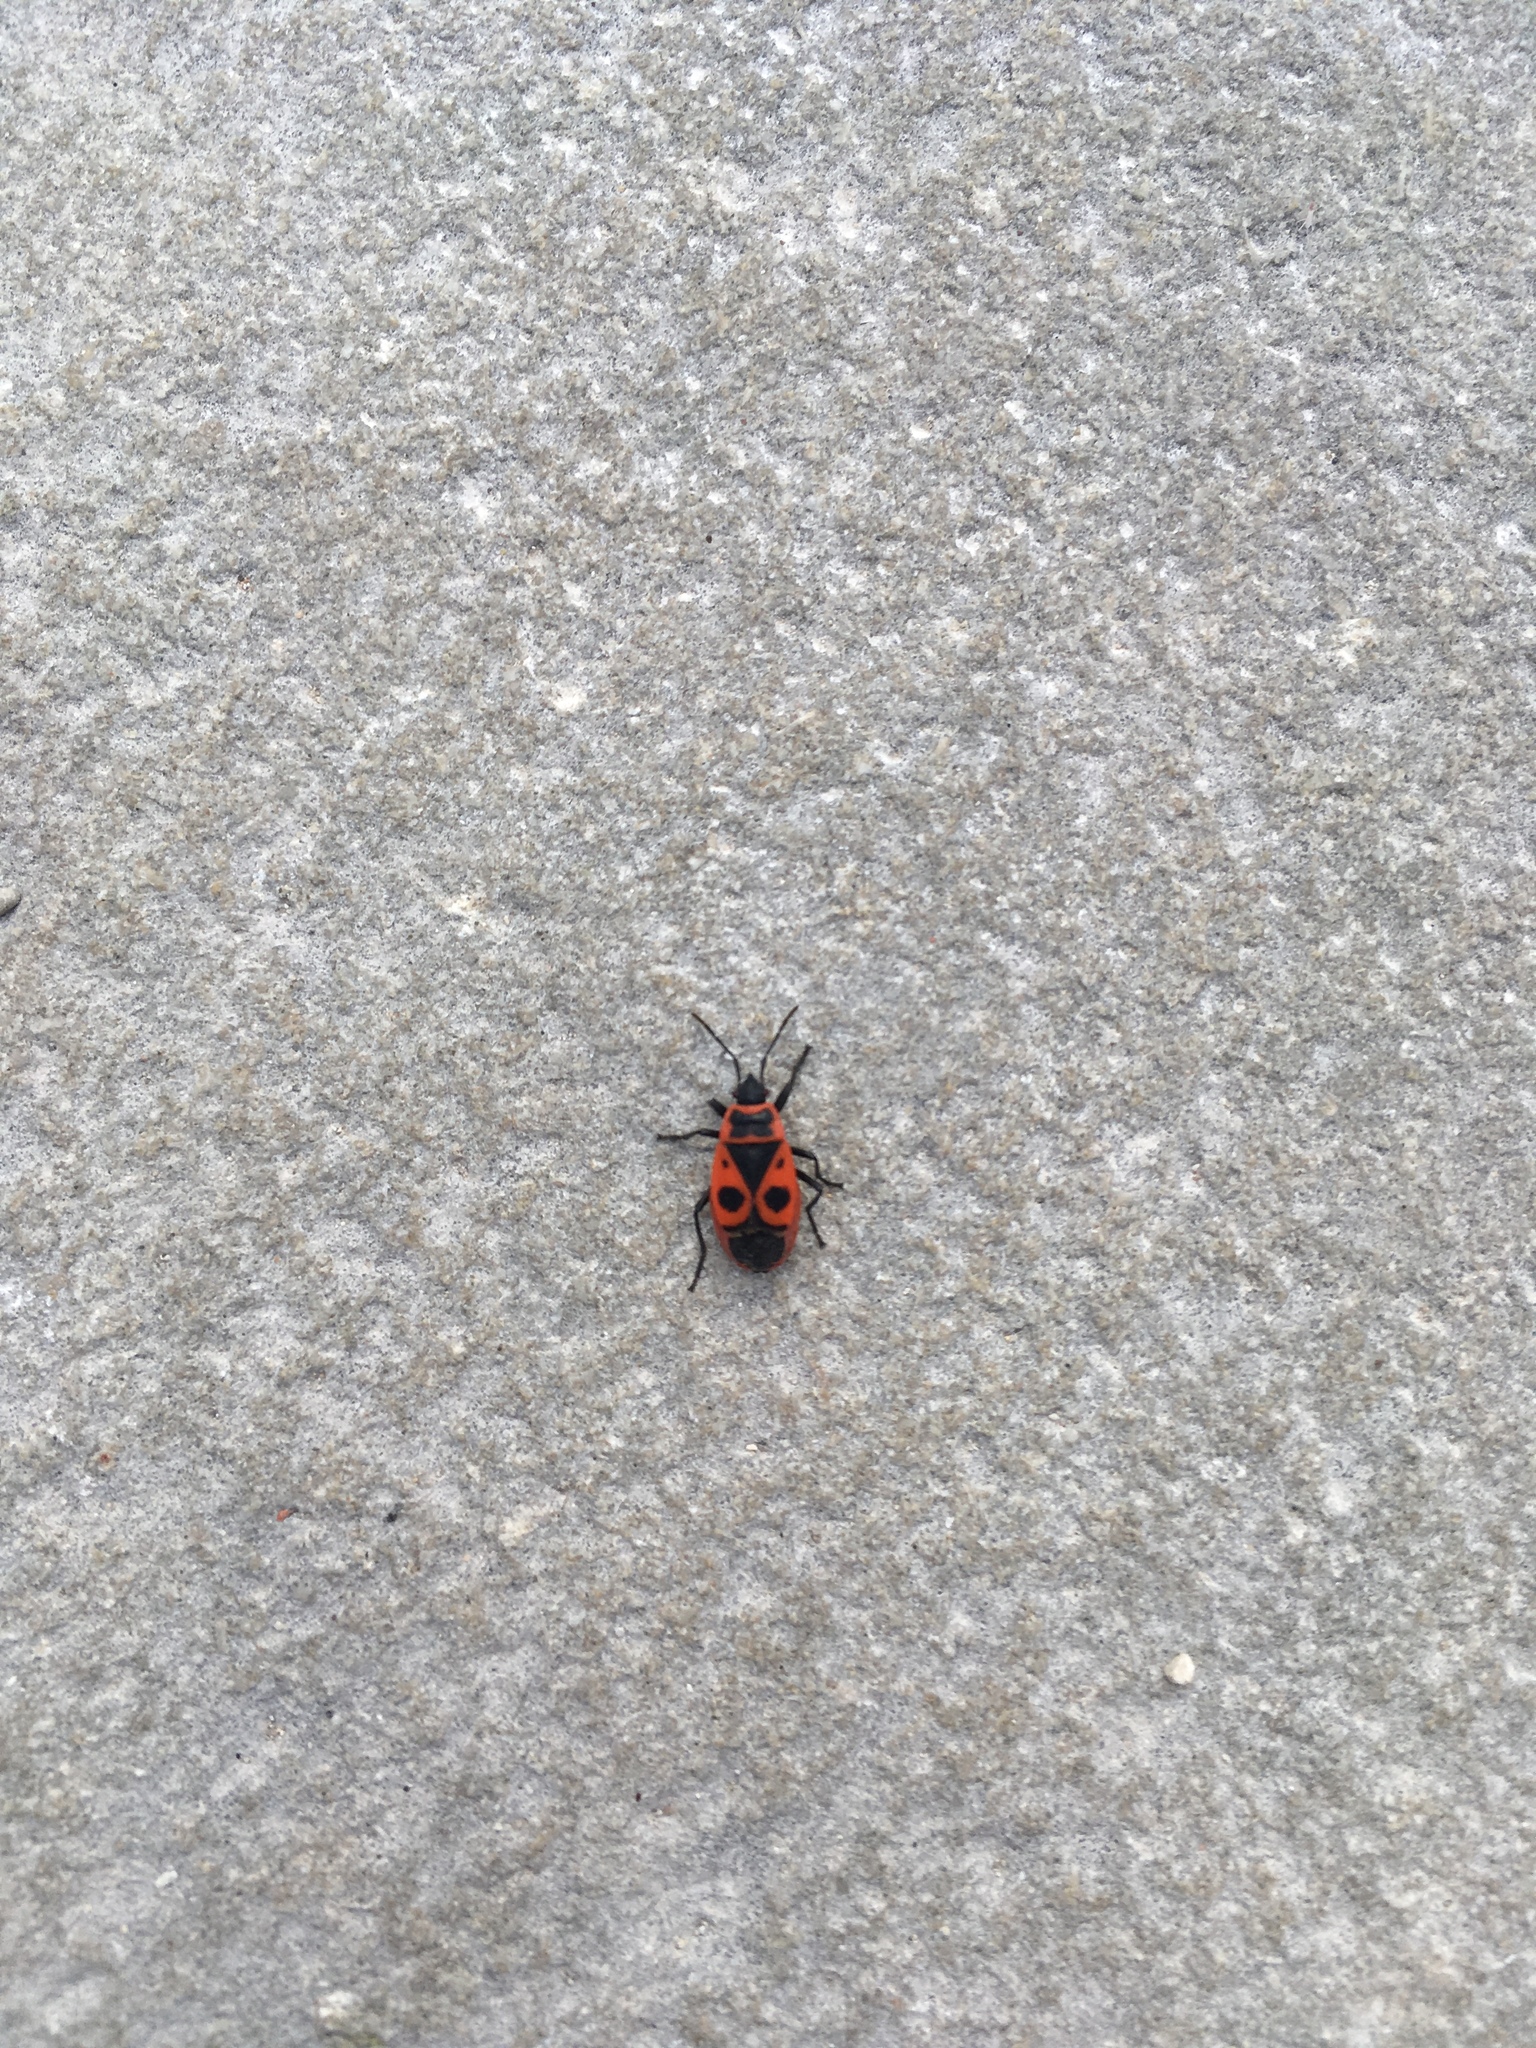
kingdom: Animalia
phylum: Arthropoda
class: Insecta
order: Hemiptera
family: Pyrrhocoridae
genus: Pyrrhocoris
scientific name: Pyrrhocoris apterus
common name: Firebug
